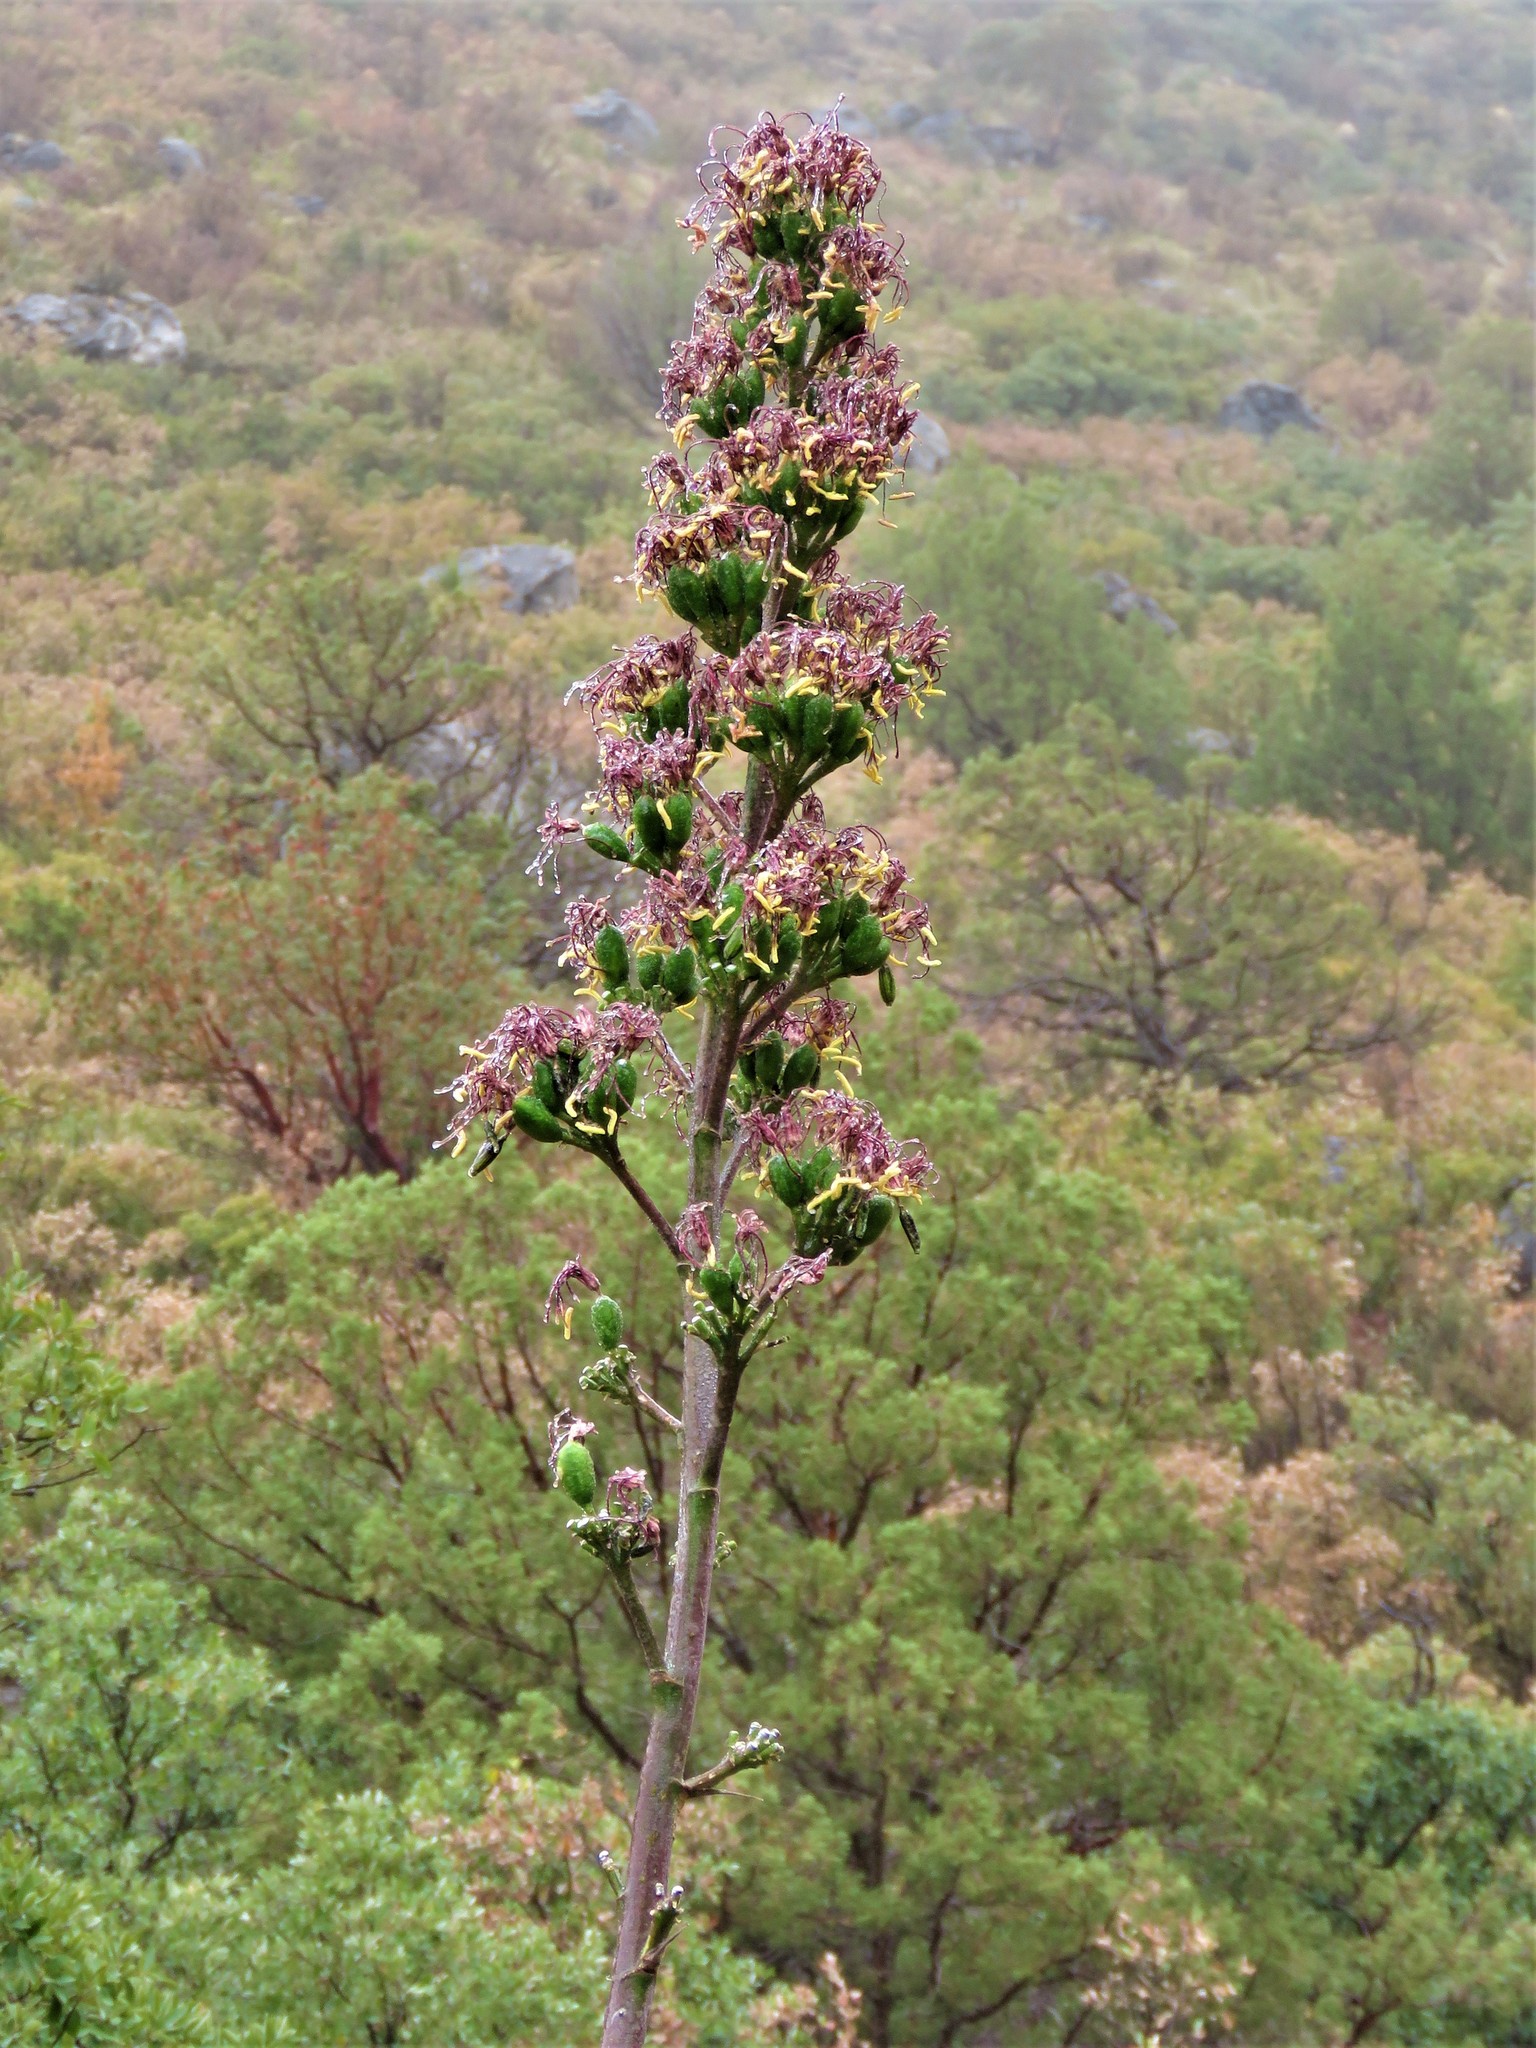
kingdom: Plantae
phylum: Tracheophyta
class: Liliopsida
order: Asparagales
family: Asparagaceae
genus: Agave
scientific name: Agave parryi
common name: Parry's agave
